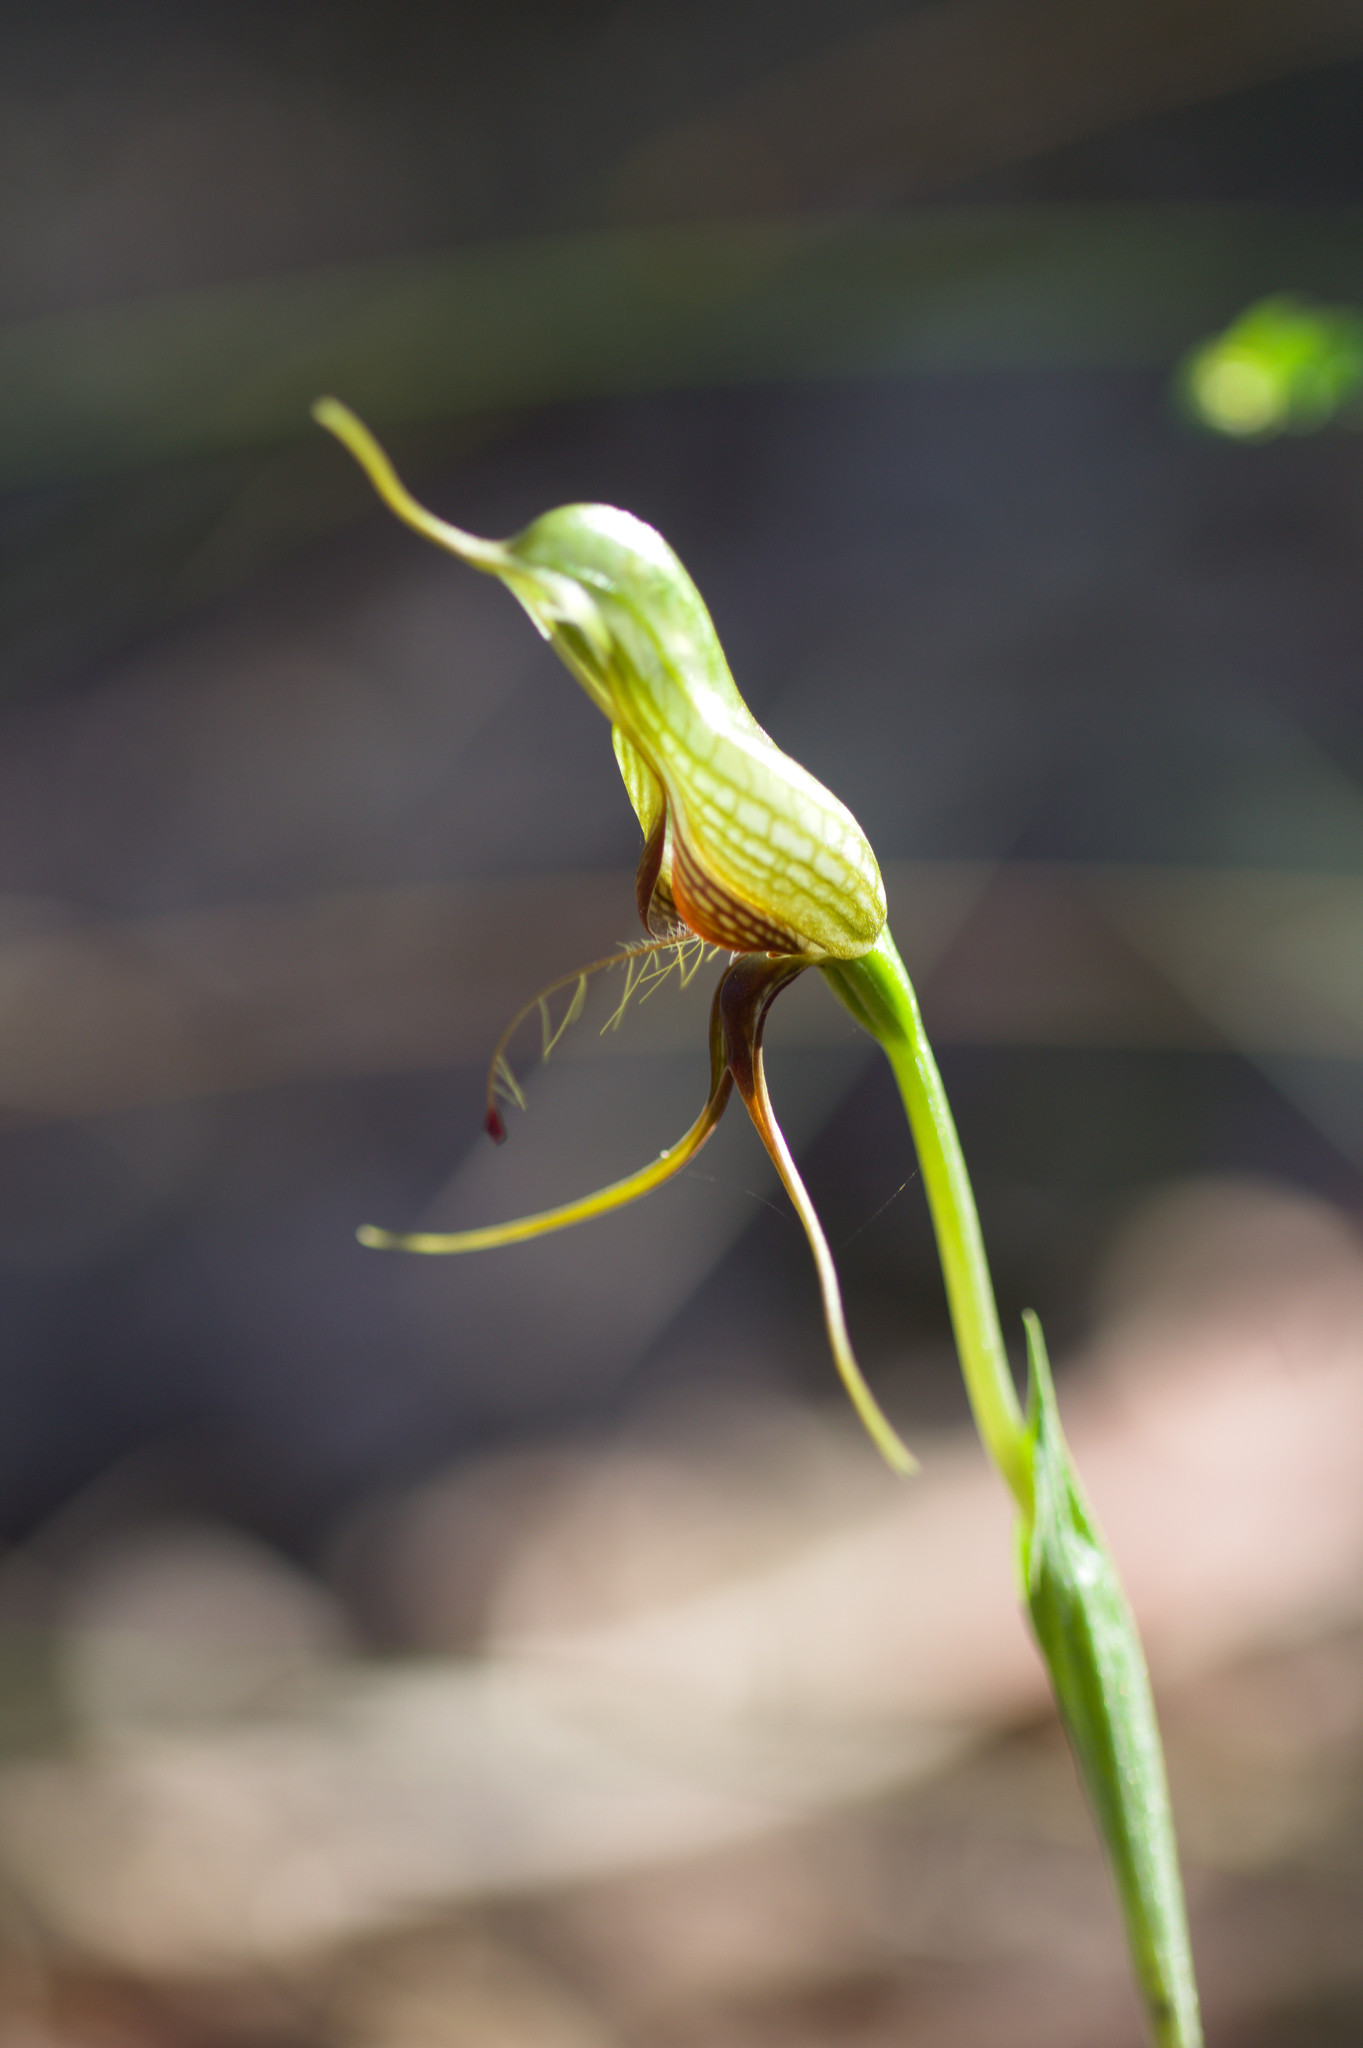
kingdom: Plantae
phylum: Tracheophyta
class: Liliopsida
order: Asparagales
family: Orchidaceae
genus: Pterostylis
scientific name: Pterostylis barbata
